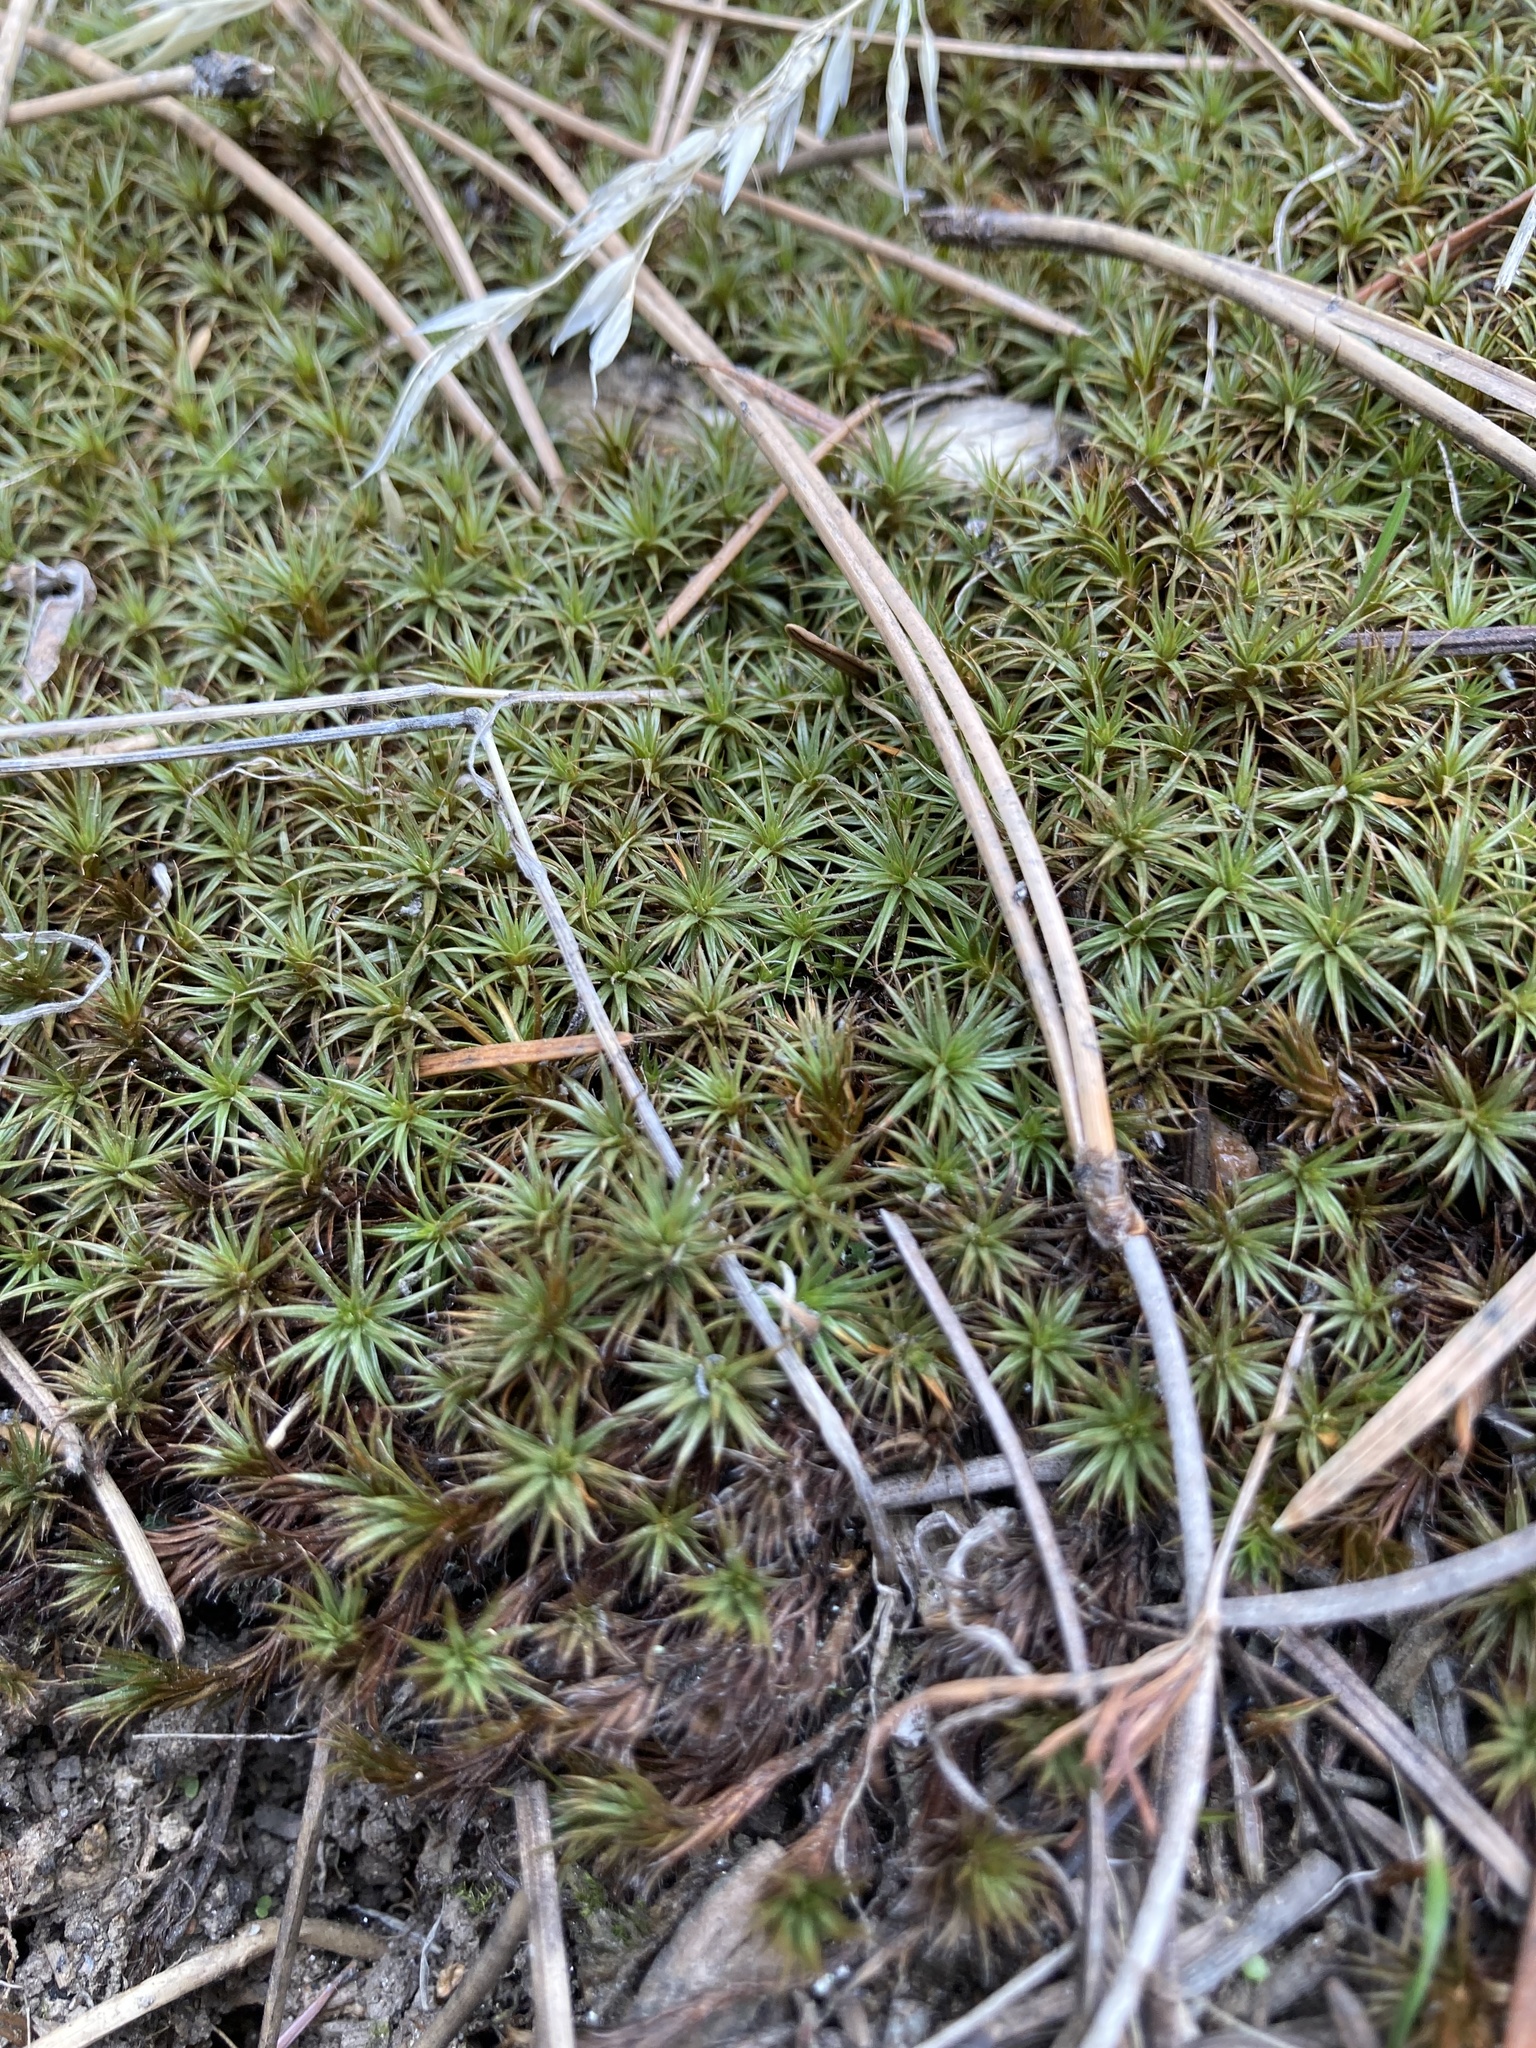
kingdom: Plantae
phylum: Bryophyta
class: Polytrichopsida
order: Polytrichales
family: Polytrichaceae
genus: Polytrichum
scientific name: Polytrichum juniperinum
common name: Juniper haircap moss
